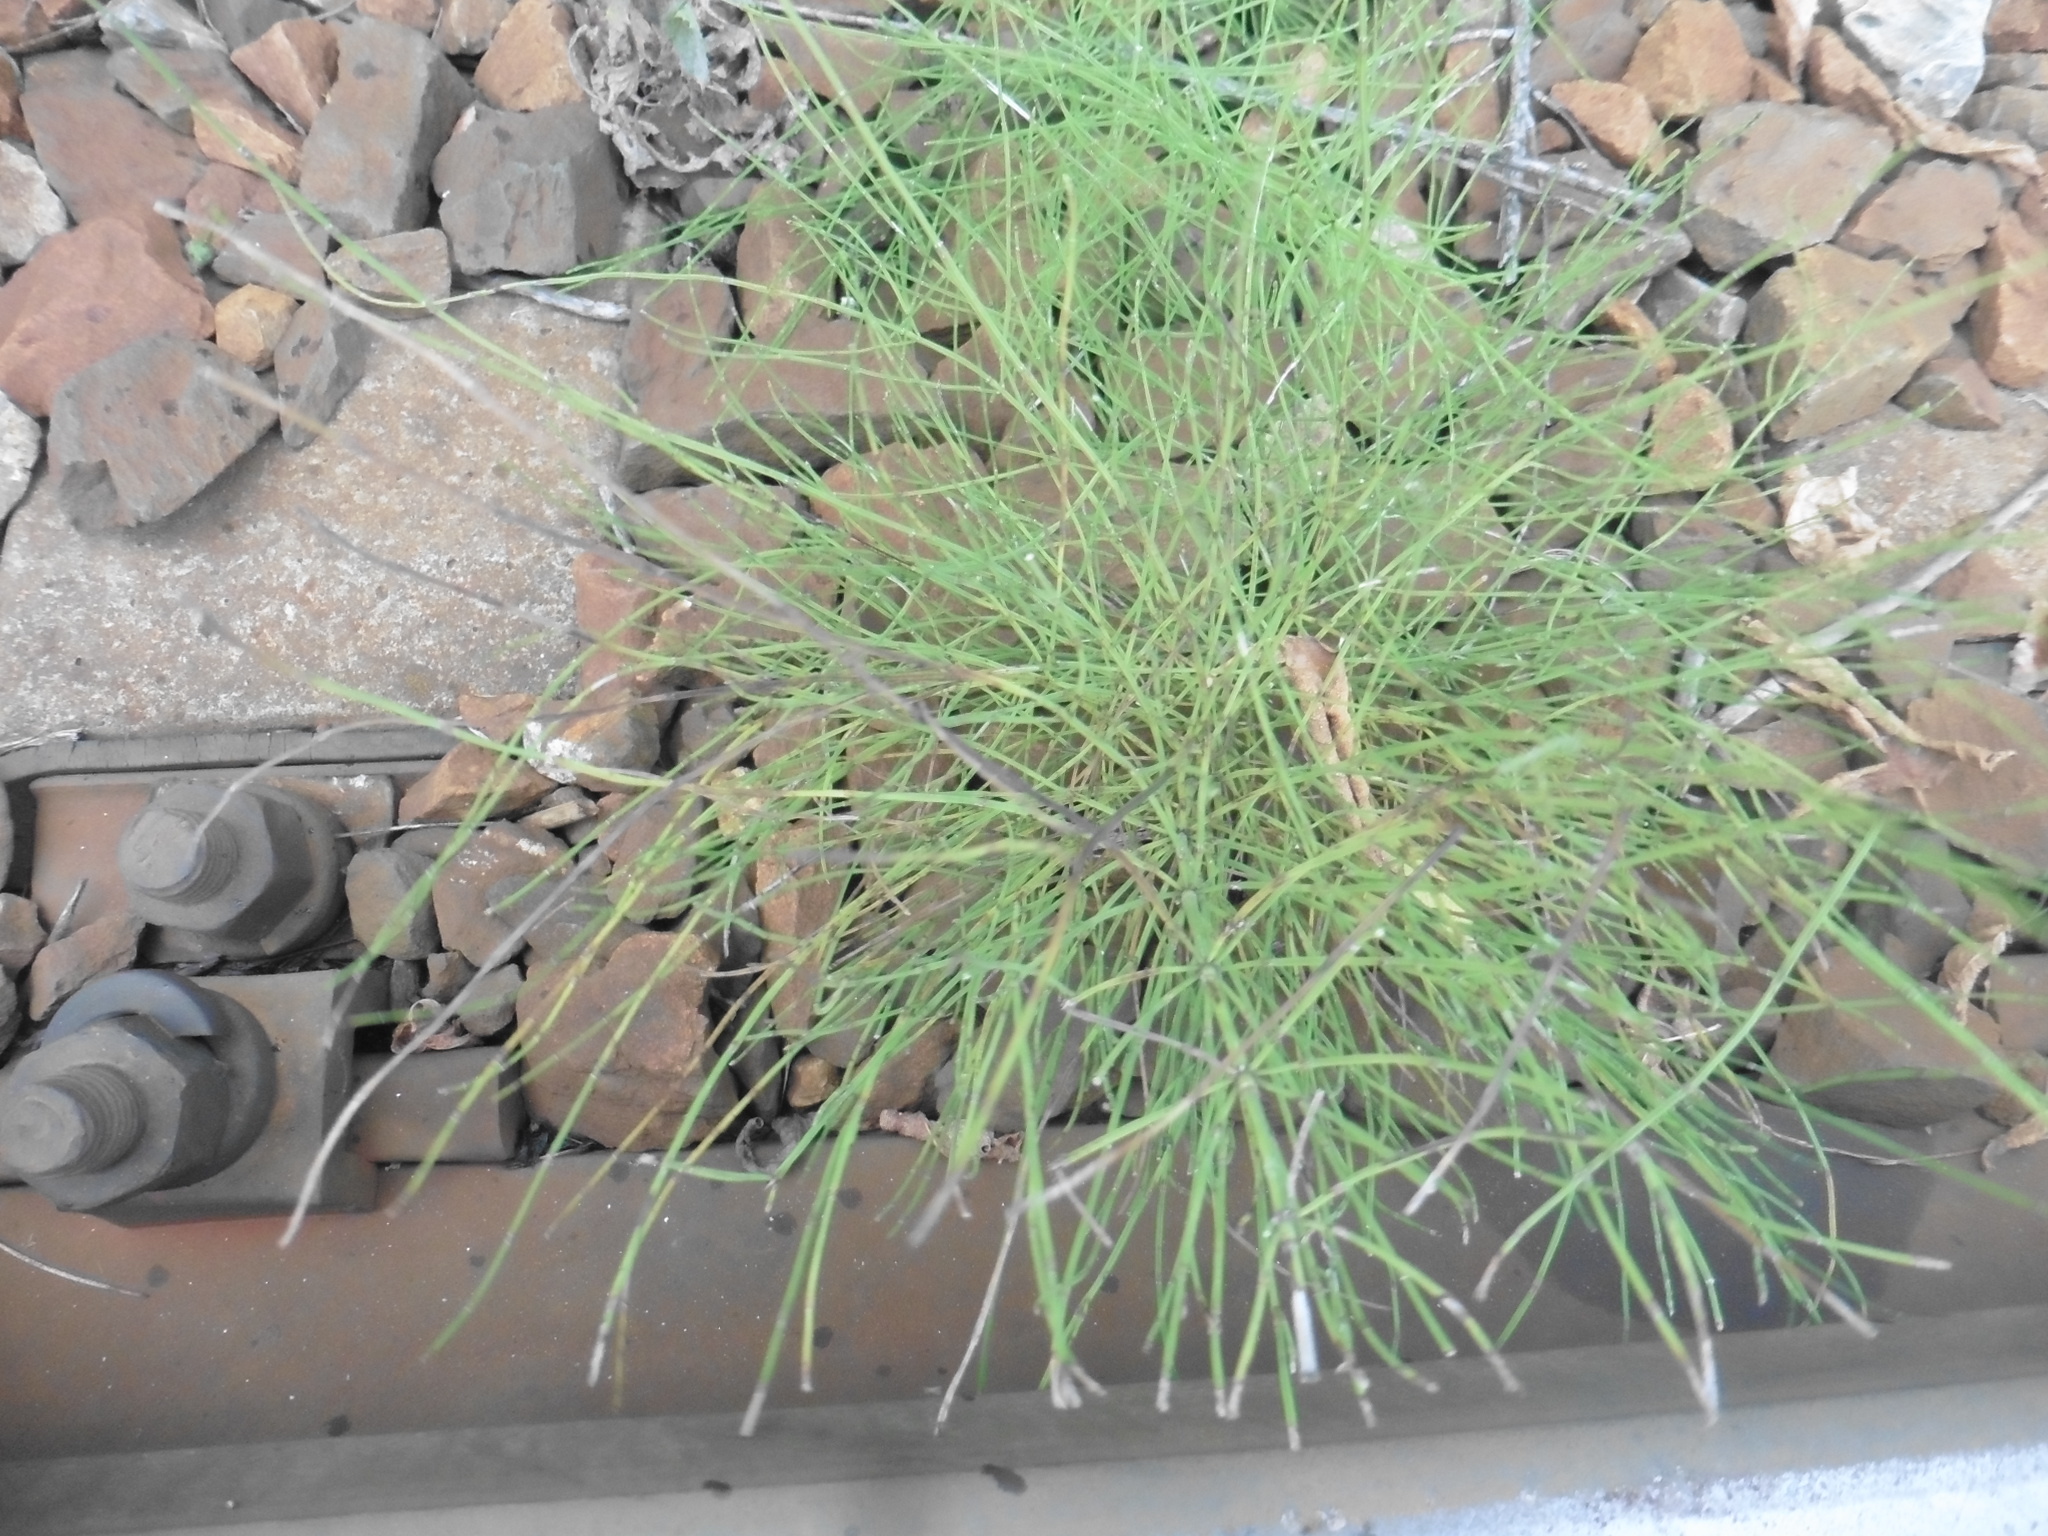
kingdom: Plantae
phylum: Tracheophyta
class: Polypodiopsida
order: Equisetales
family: Equisetaceae
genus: Equisetum
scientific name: Equisetum arvense
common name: Field horsetail
